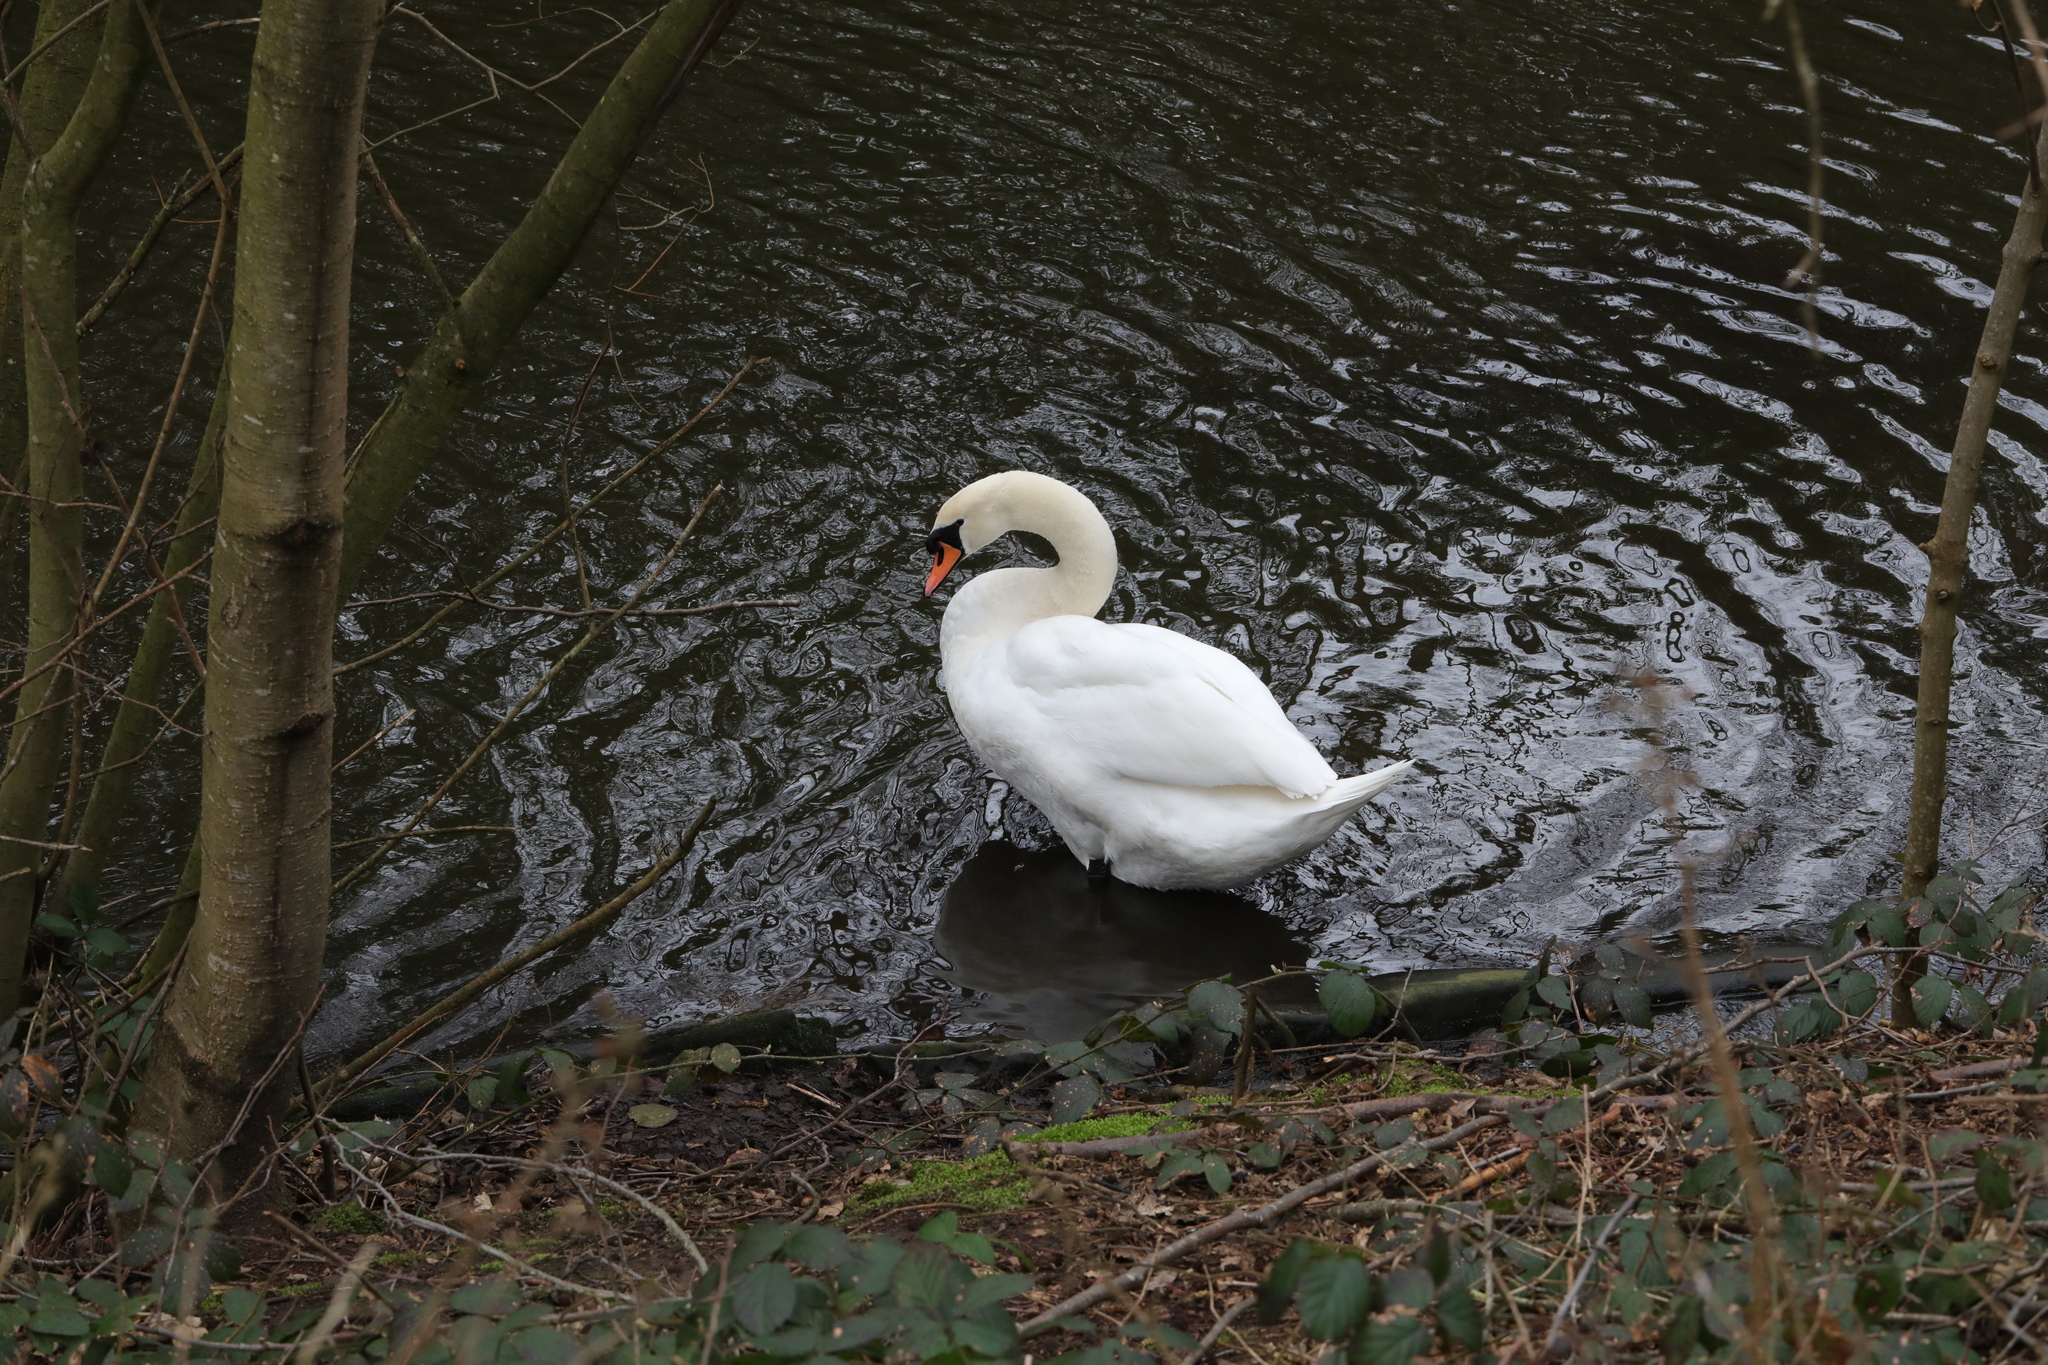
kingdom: Animalia
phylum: Chordata
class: Aves
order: Anseriformes
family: Anatidae
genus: Cygnus
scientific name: Cygnus olor
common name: Mute swan
